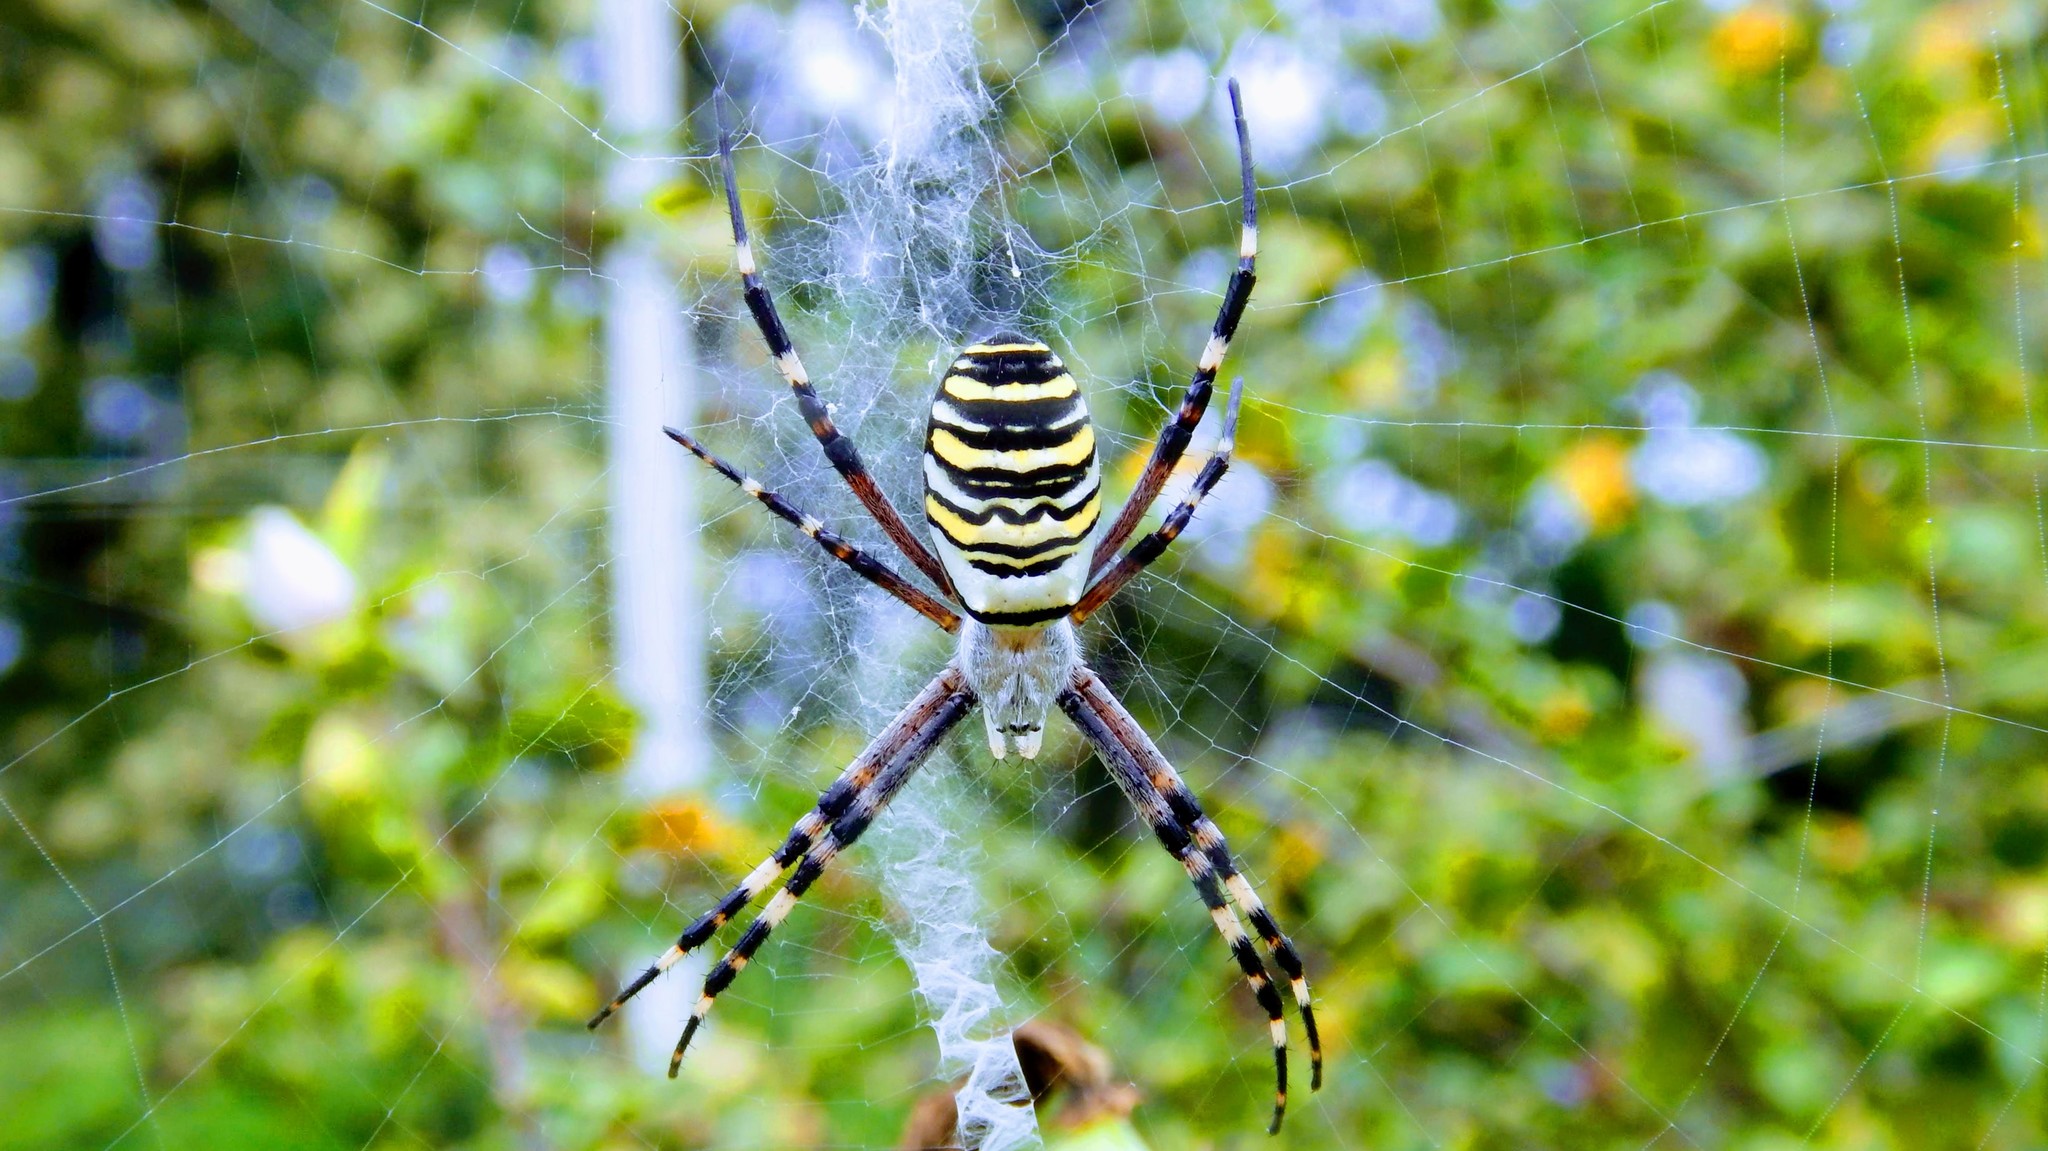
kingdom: Animalia
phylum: Arthropoda
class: Arachnida
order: Araneae
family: Araneidae
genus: Argiope
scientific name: Argiope bruennichi
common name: Wasp spider
